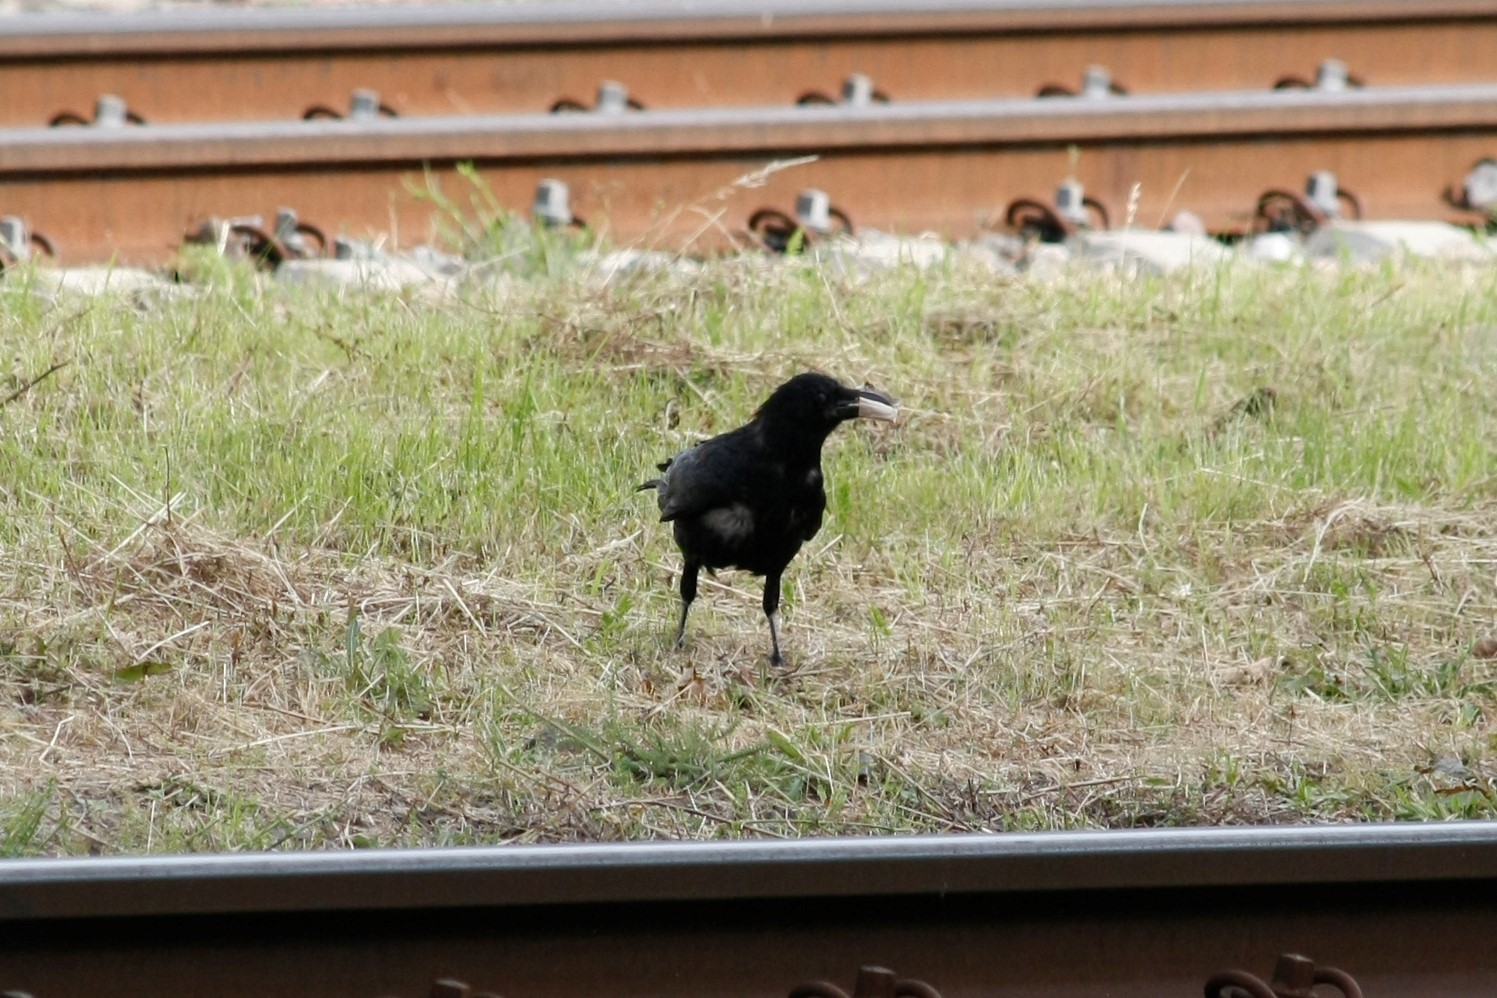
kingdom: Animalia
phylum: Chordata
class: Aves
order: Passeriformes
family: Corvidae
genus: Corvus
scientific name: Corvus corone
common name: Carrion crow
